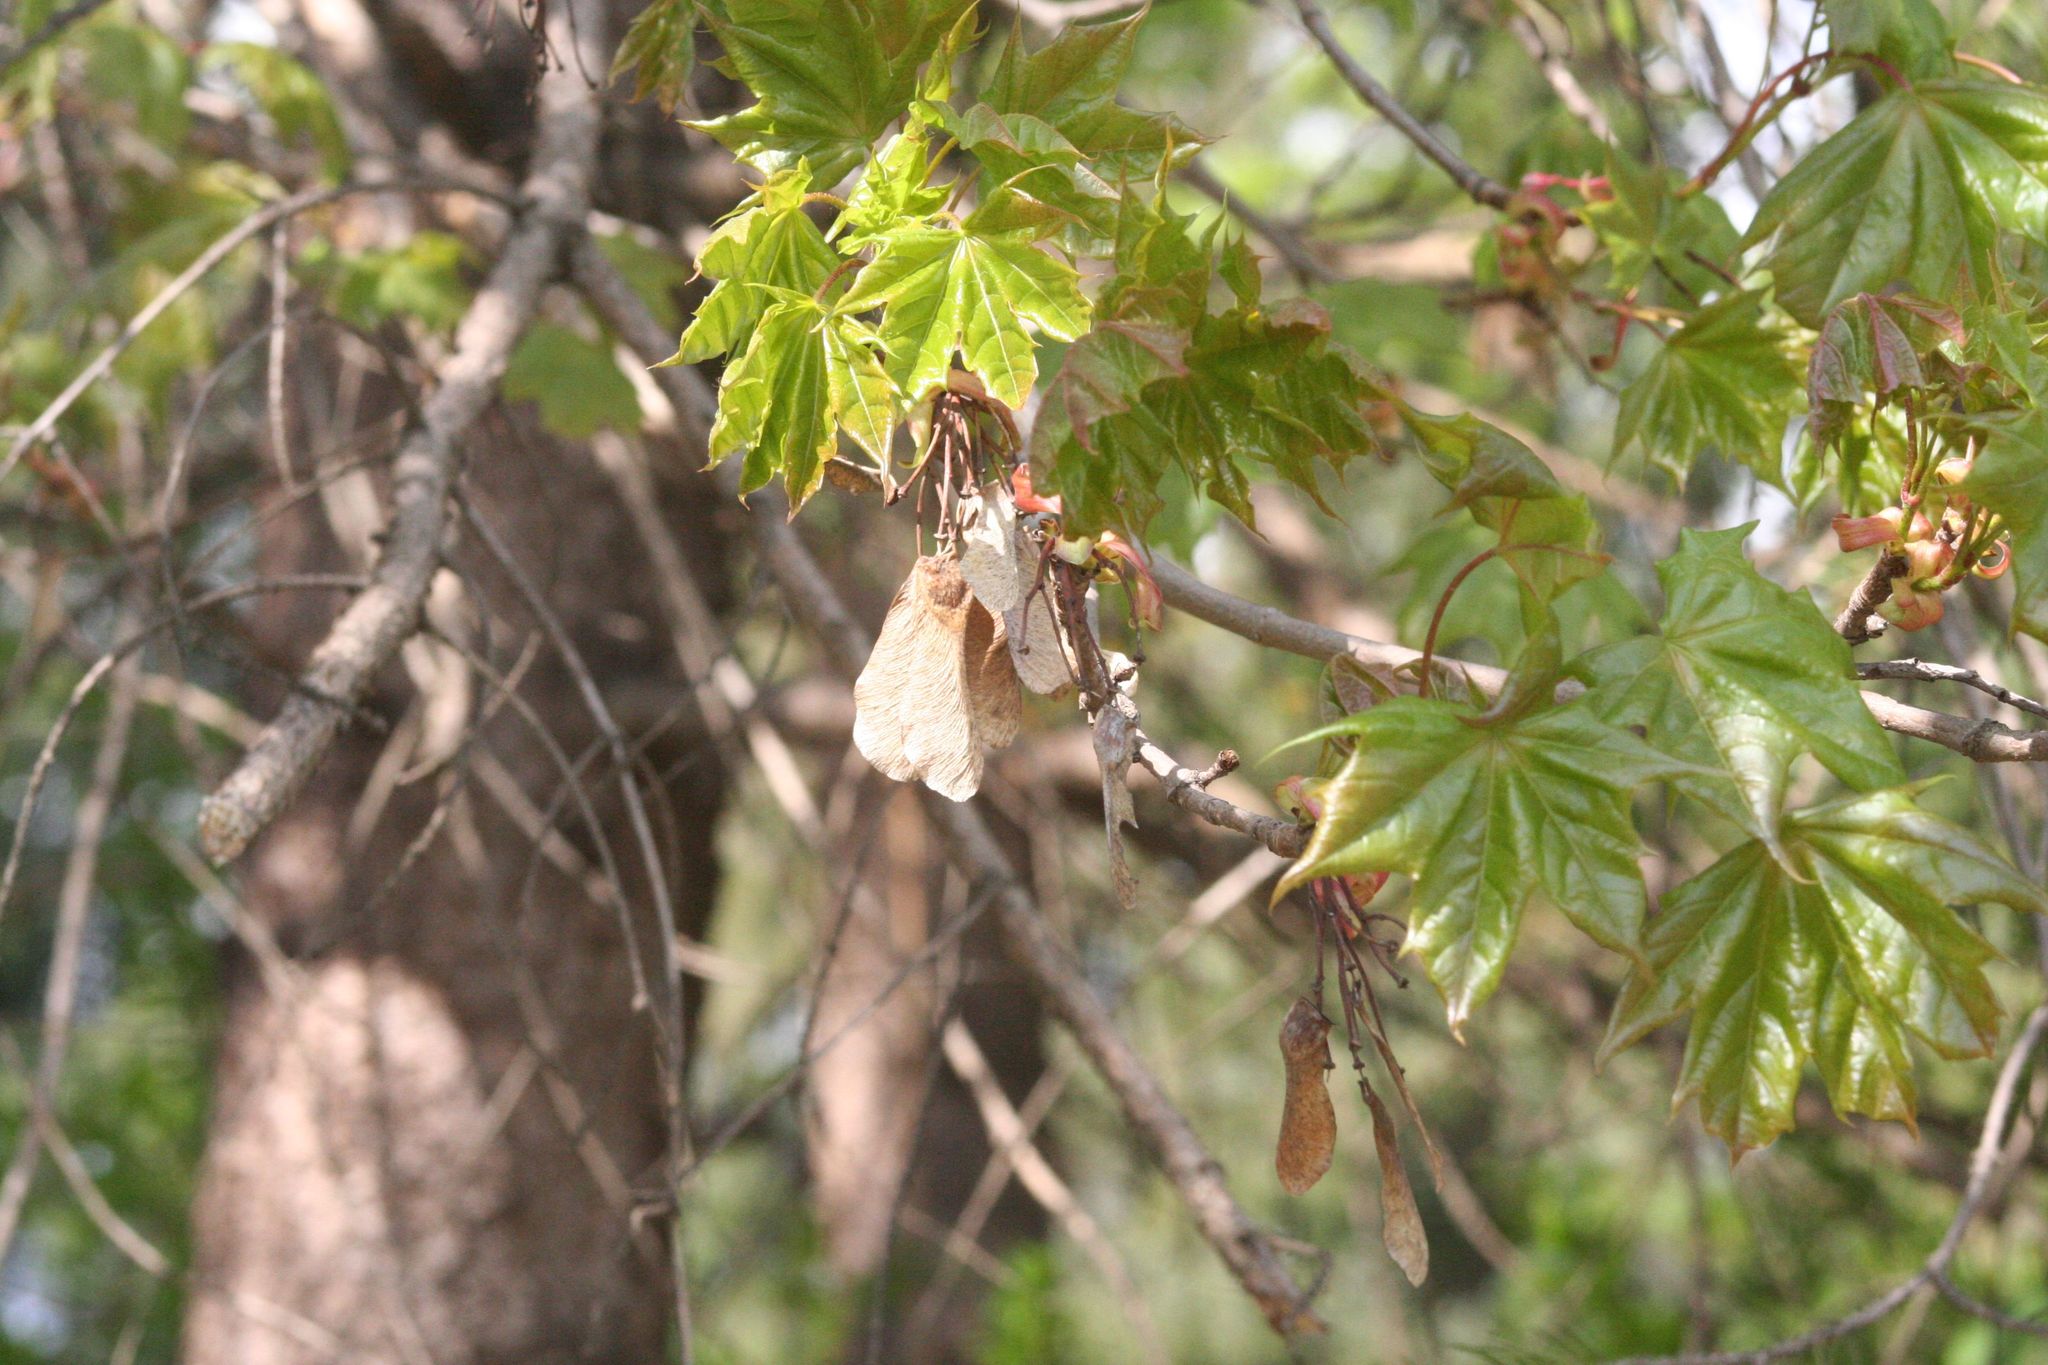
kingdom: Plantae
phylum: Tracheophyta
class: Magnoliopsida
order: Sapindales
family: Sapindaceae
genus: Acer
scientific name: Acer platanoides
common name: Norway maple
